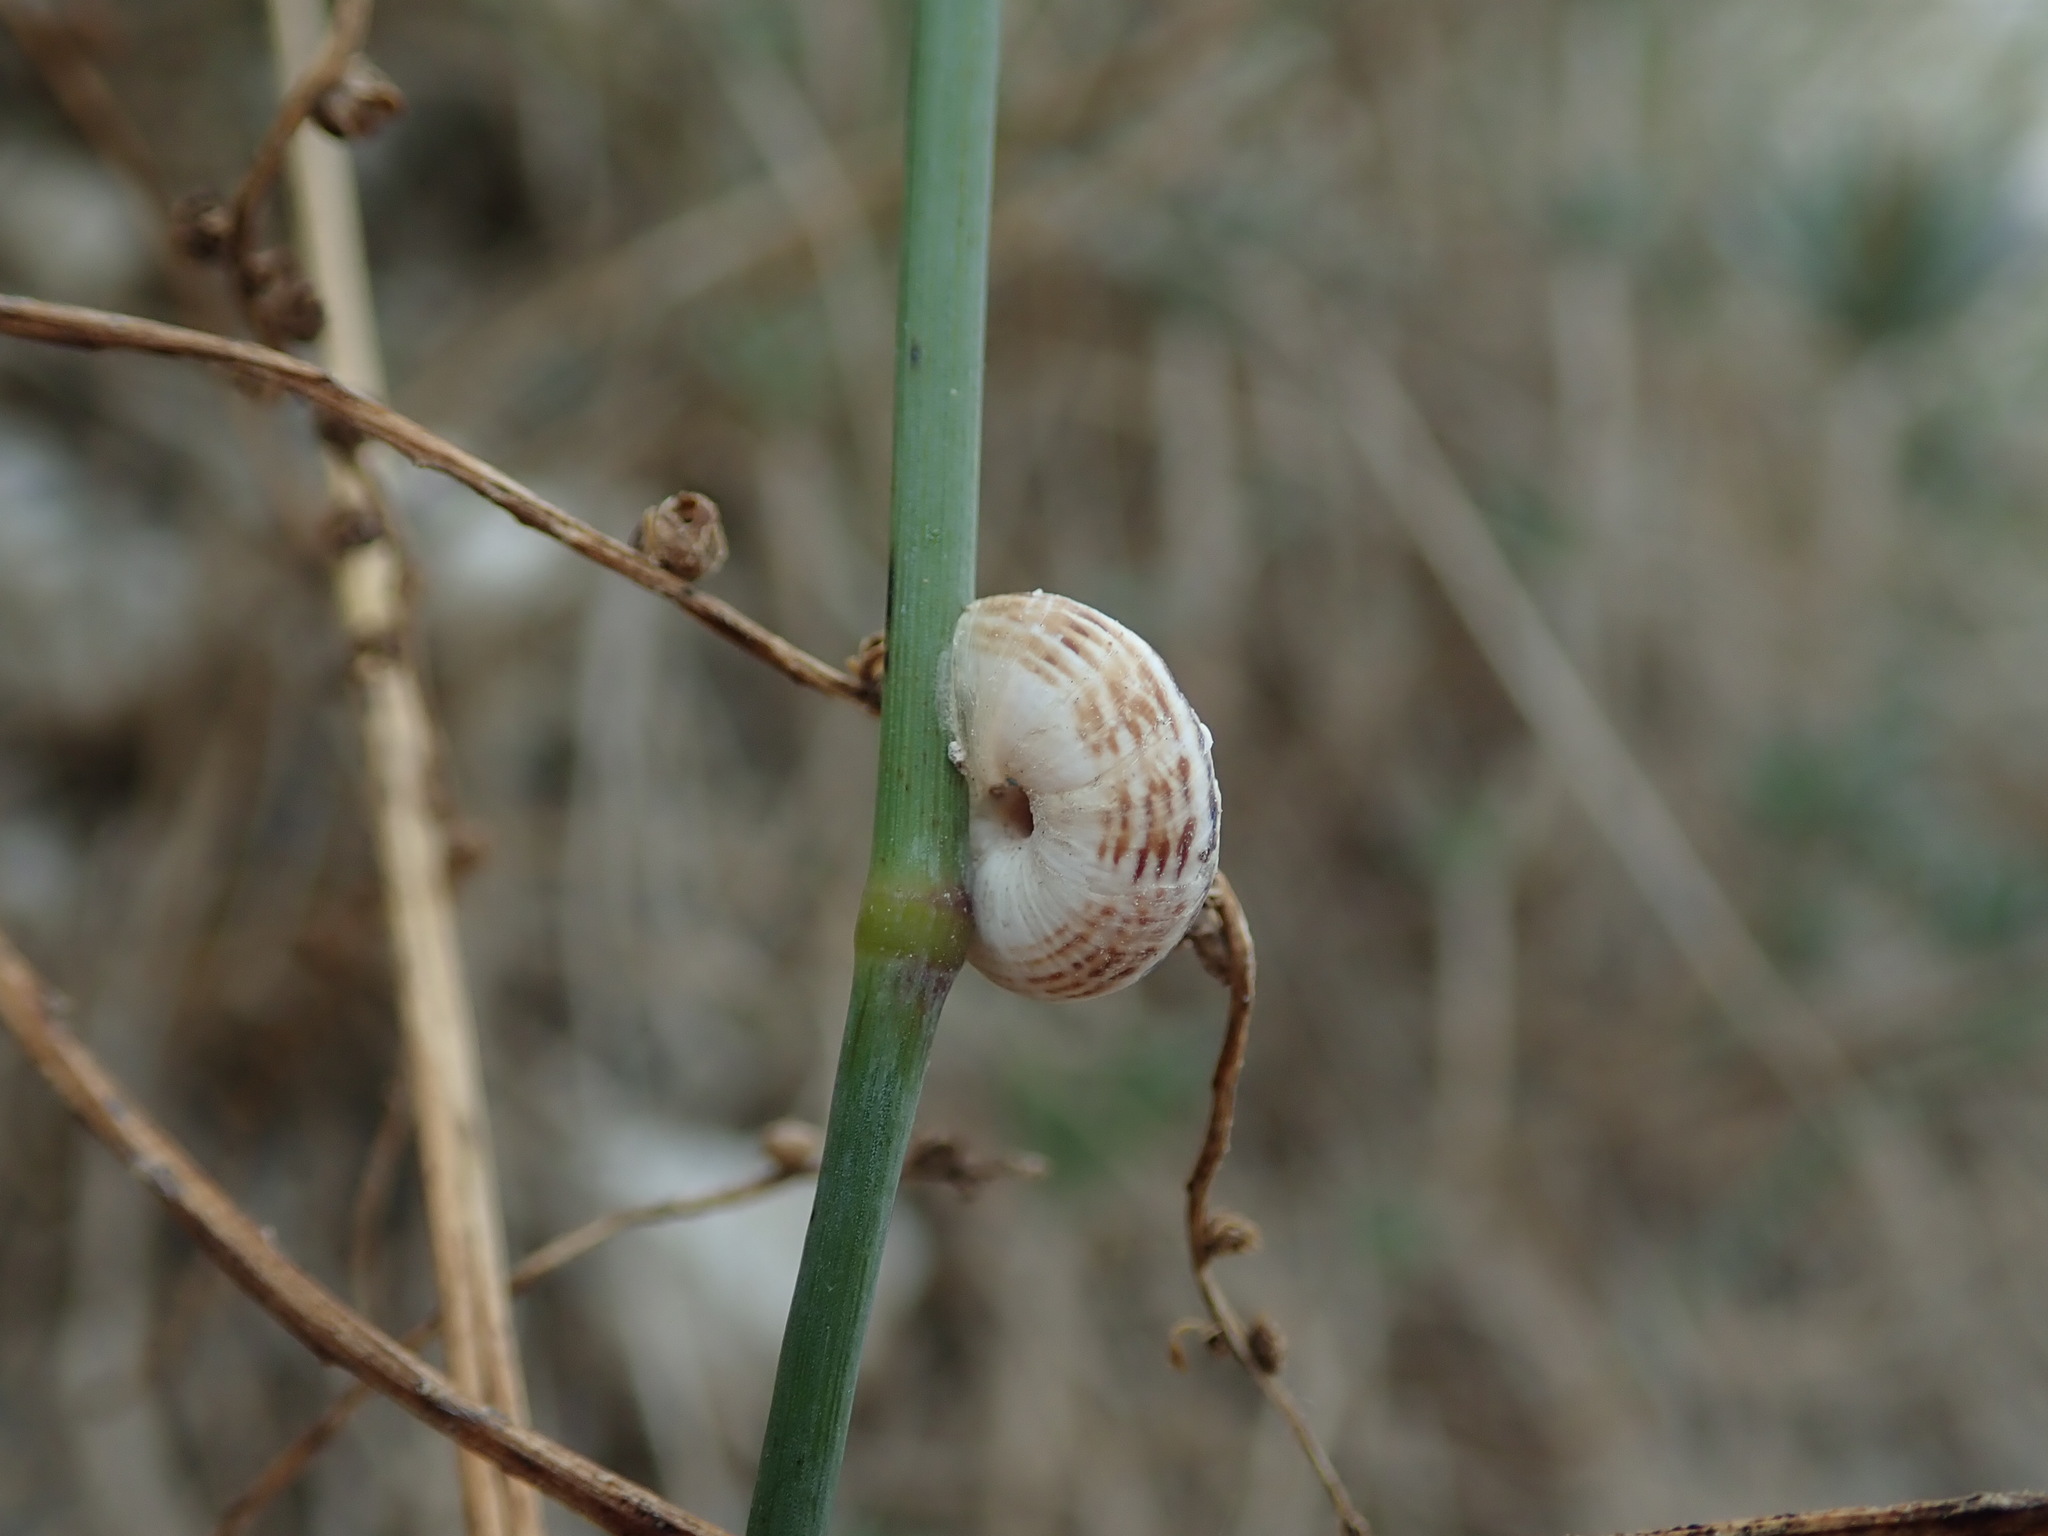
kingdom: Animalia
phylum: Mollusca
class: Gastropoda
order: Stylommatophora
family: Geomitridae
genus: Cernuella
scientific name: Cernuella virgata
